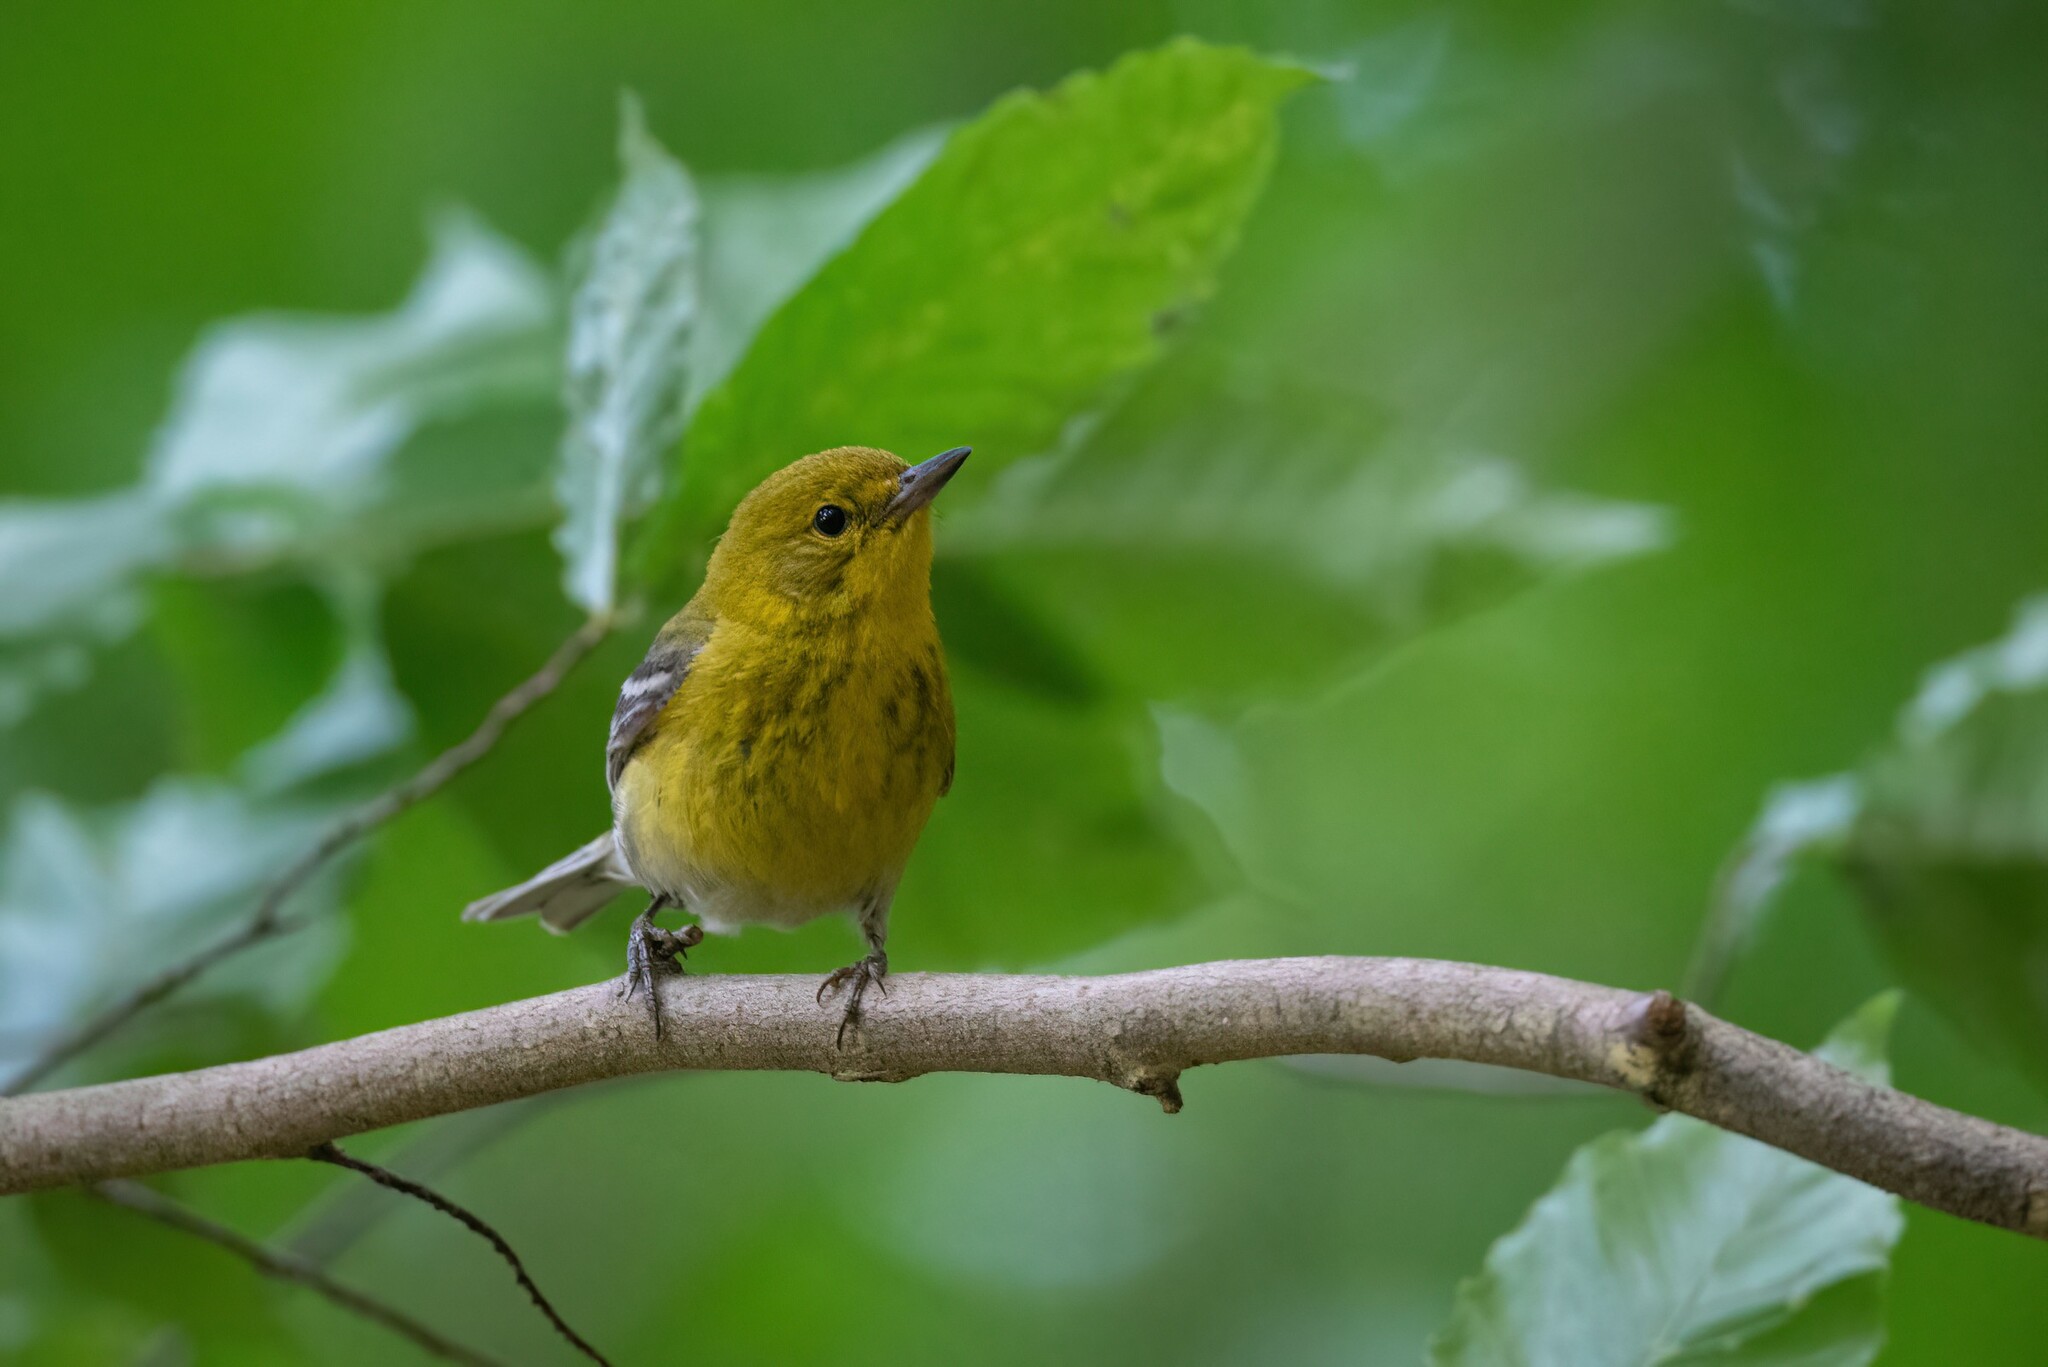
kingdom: Animalia
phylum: Chordata
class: Aves
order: Passeriformes
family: Parulidae
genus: Setophaga
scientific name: Setophaga pinus
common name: Pine warbler
